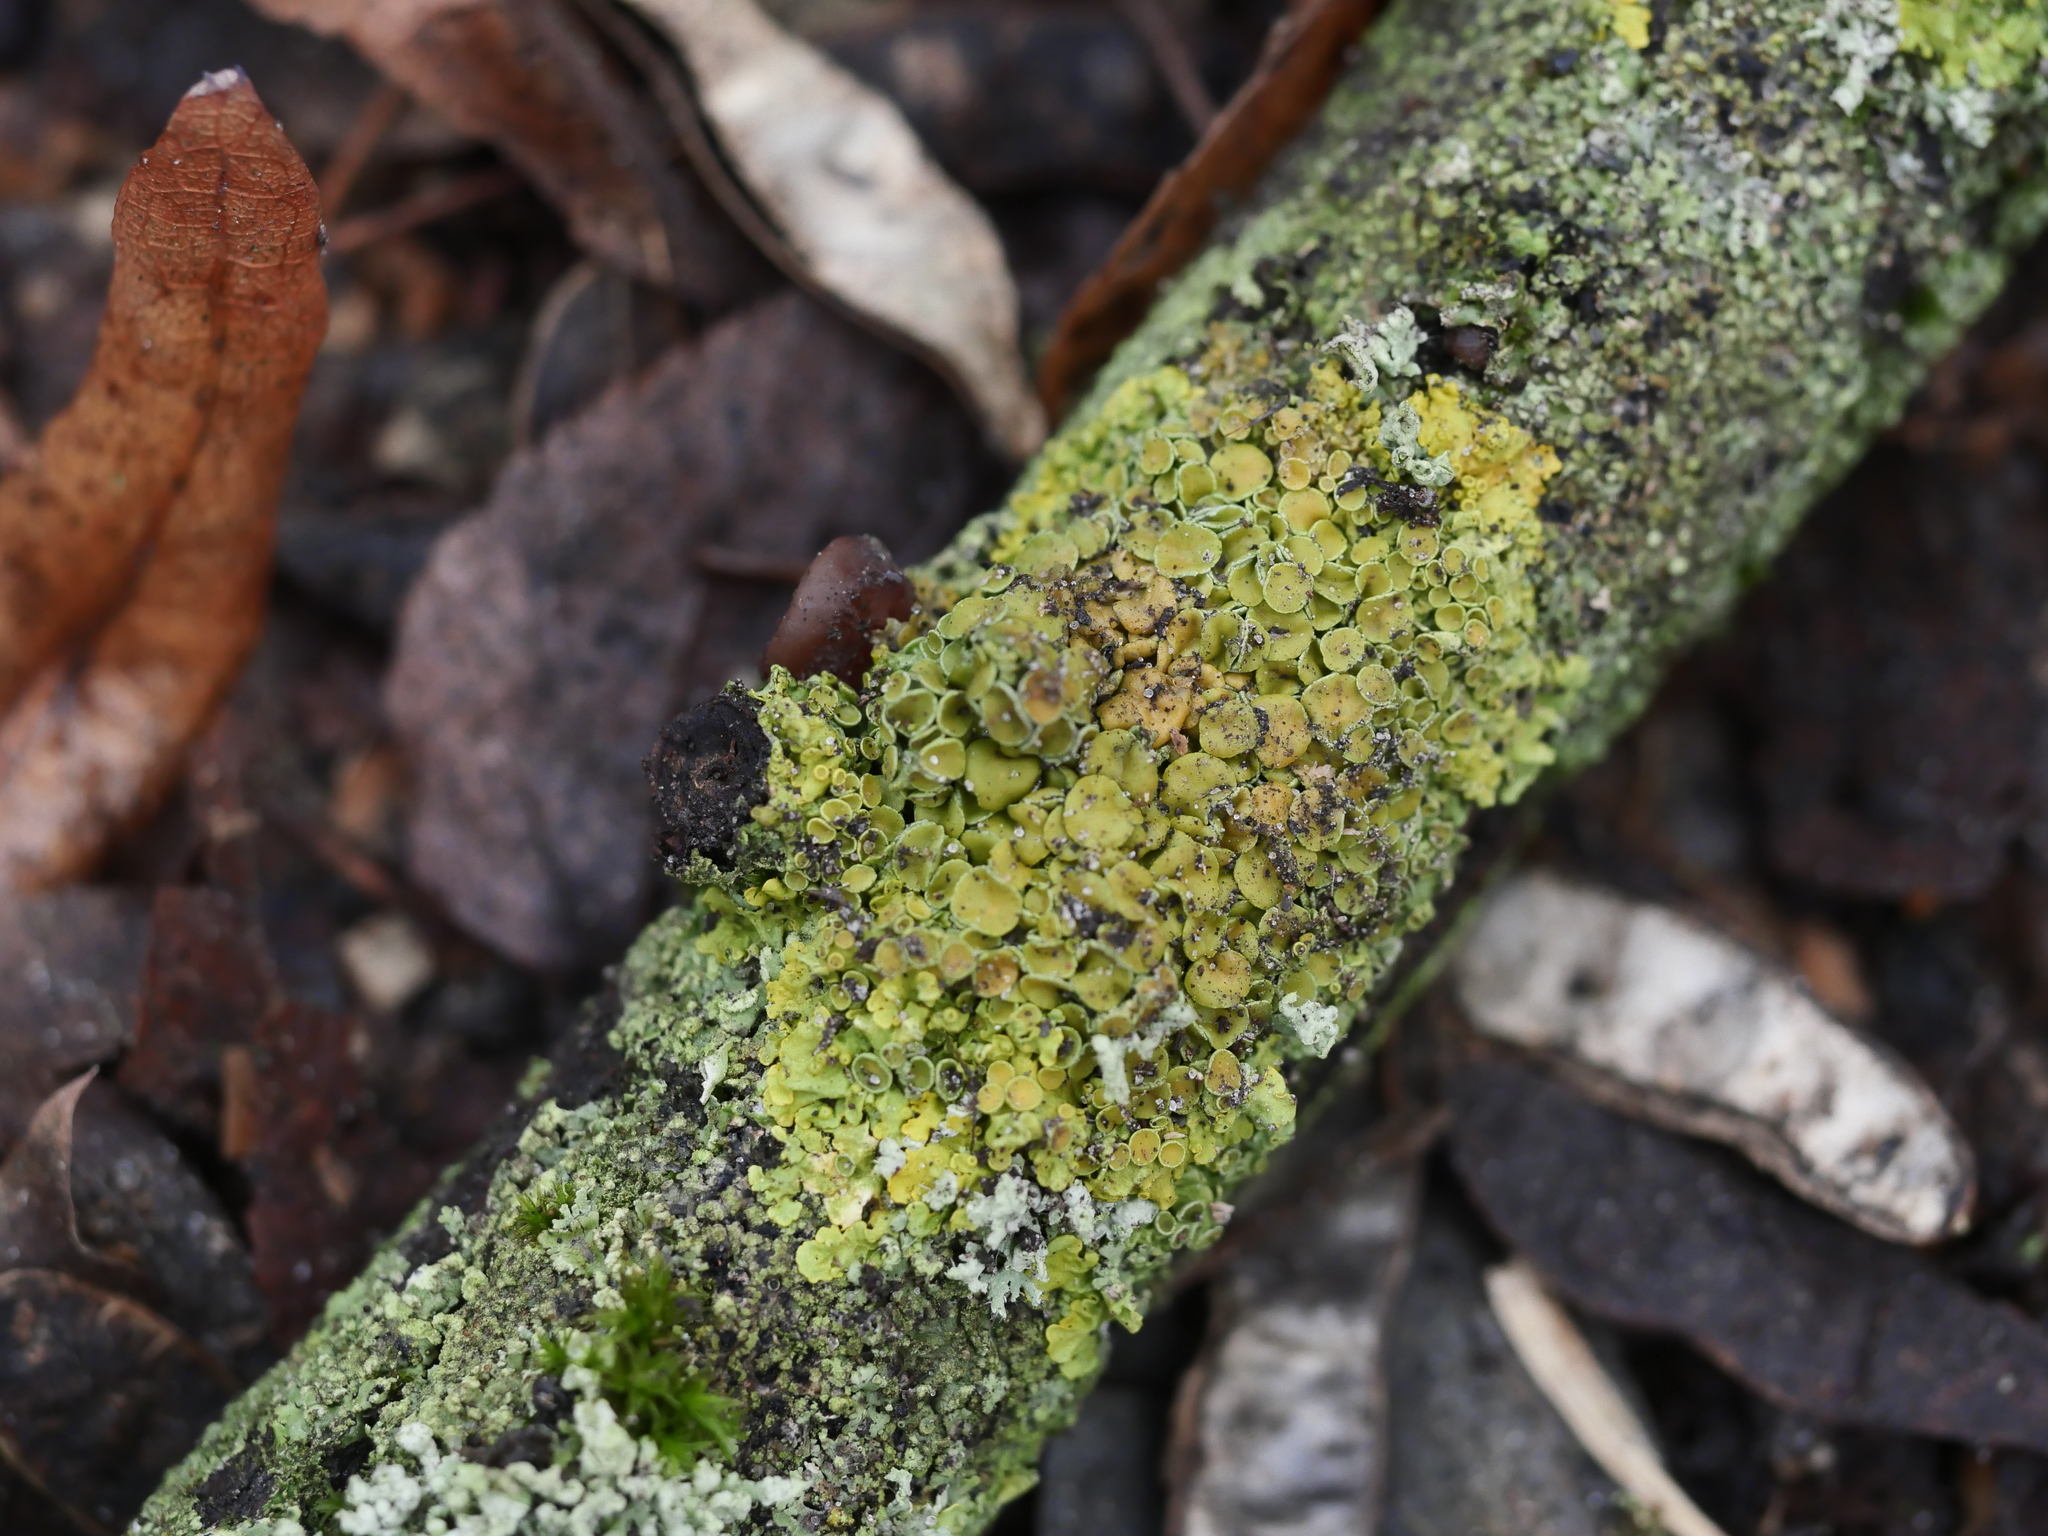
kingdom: Fungi
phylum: Ascomycota
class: Lecanoromycetes
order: Teloschistales
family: Teloschistaceae
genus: Xanthoria
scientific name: Xanthoria parietina
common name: Common orange lichen
